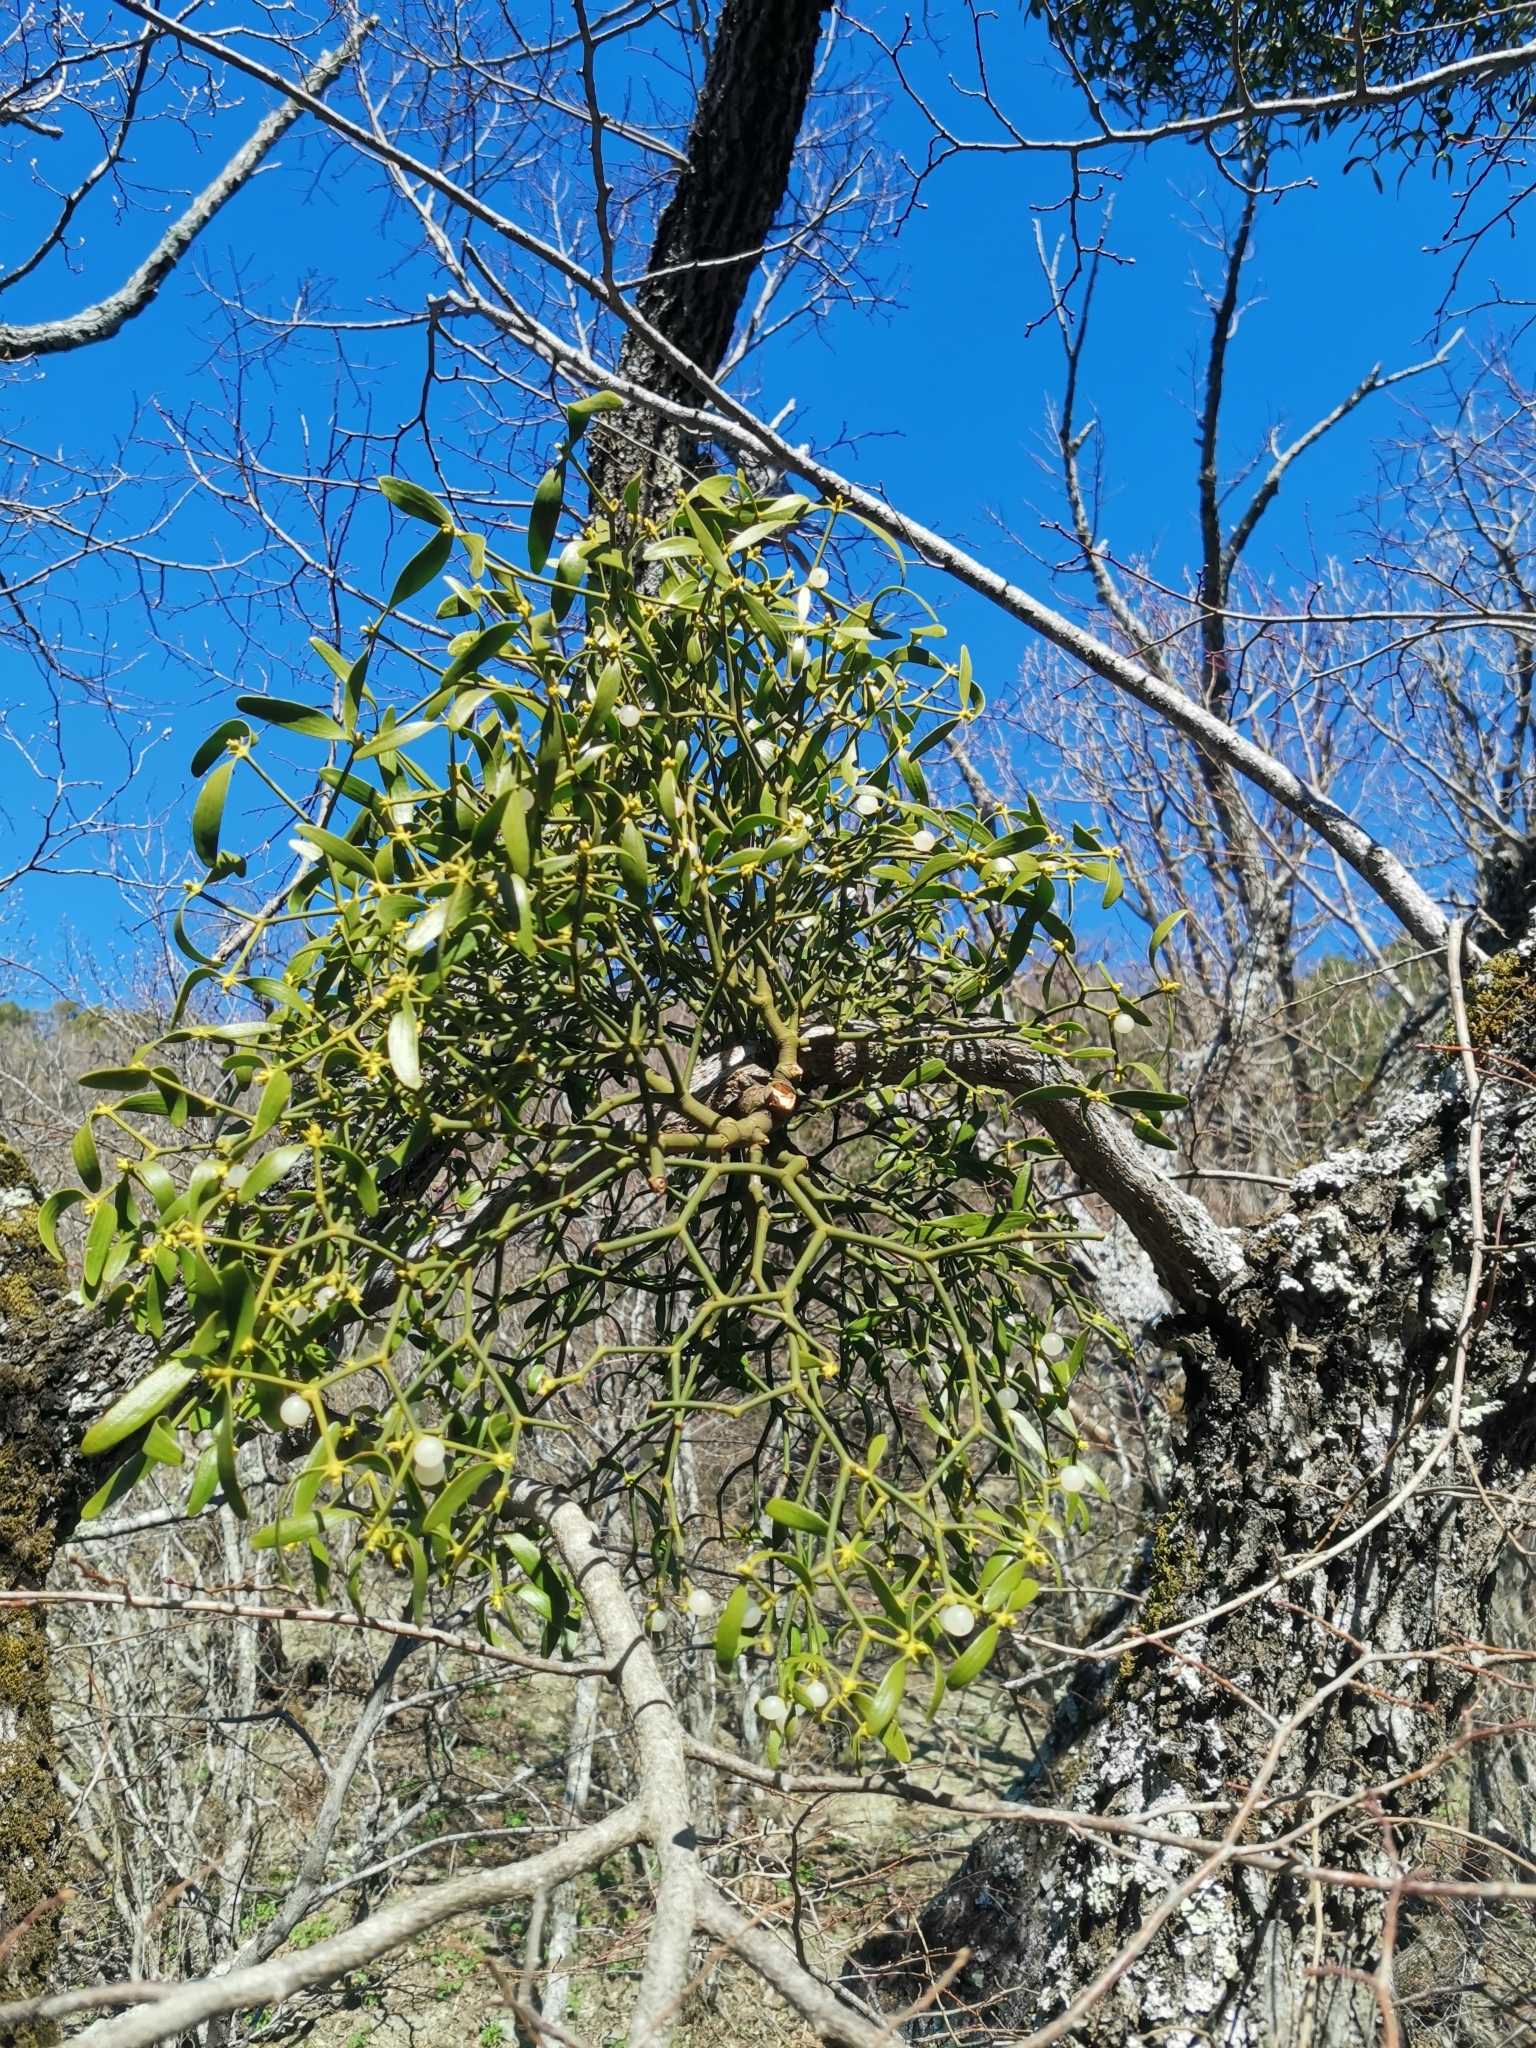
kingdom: Plantae
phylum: Tracheophyta
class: Magnoliopsida
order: Santalales
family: Viscaceae
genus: Viscum
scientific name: Viscum album
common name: Mistletoe
